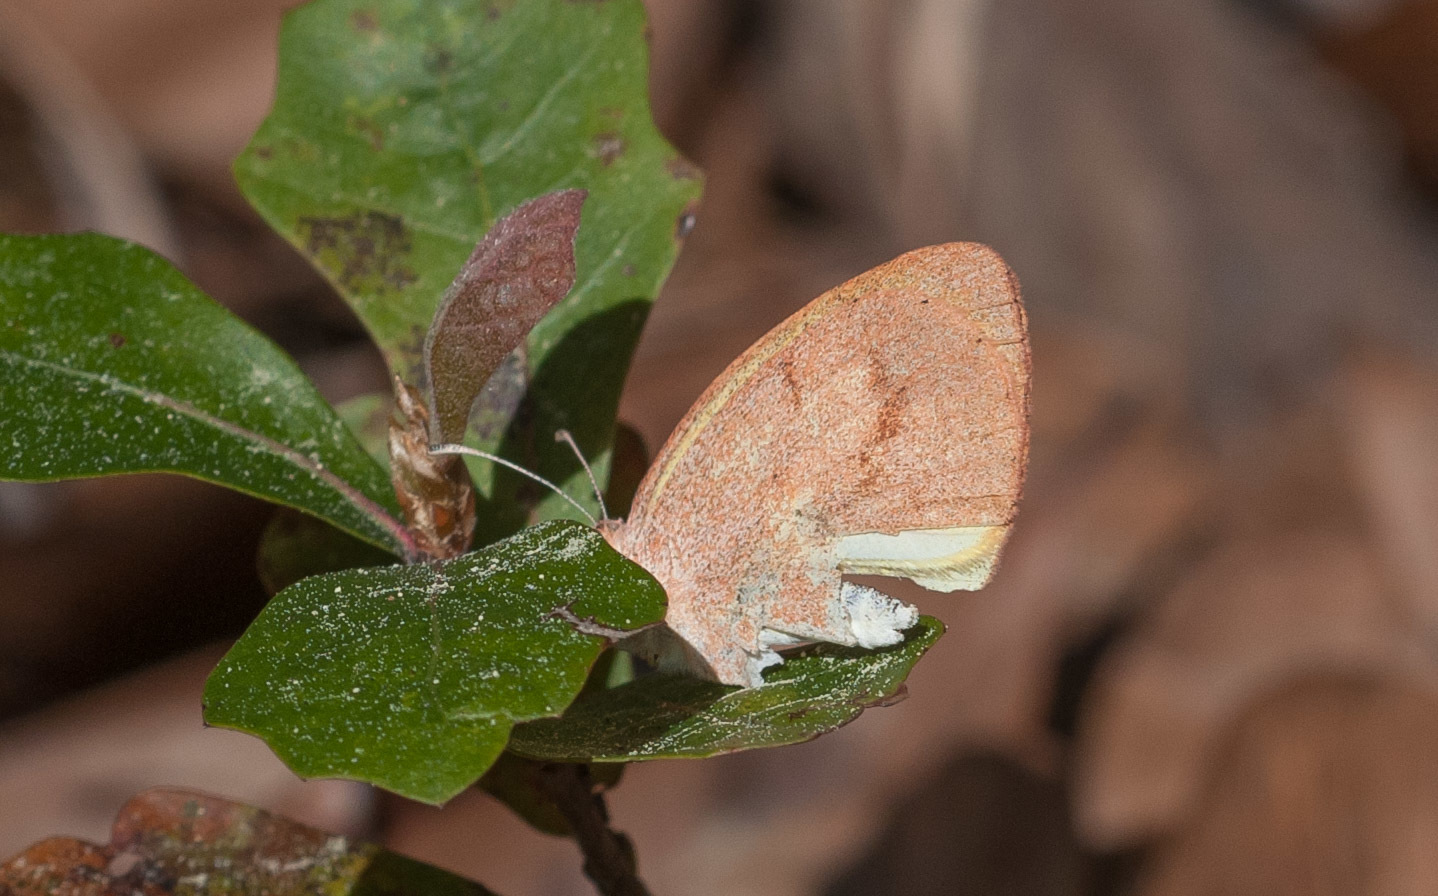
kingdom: Animalia
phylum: Arthropoda
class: Insecta
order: Lepidoptera
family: Pieridae
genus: Eurema
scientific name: Eurema daira
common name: Barred sulphur
